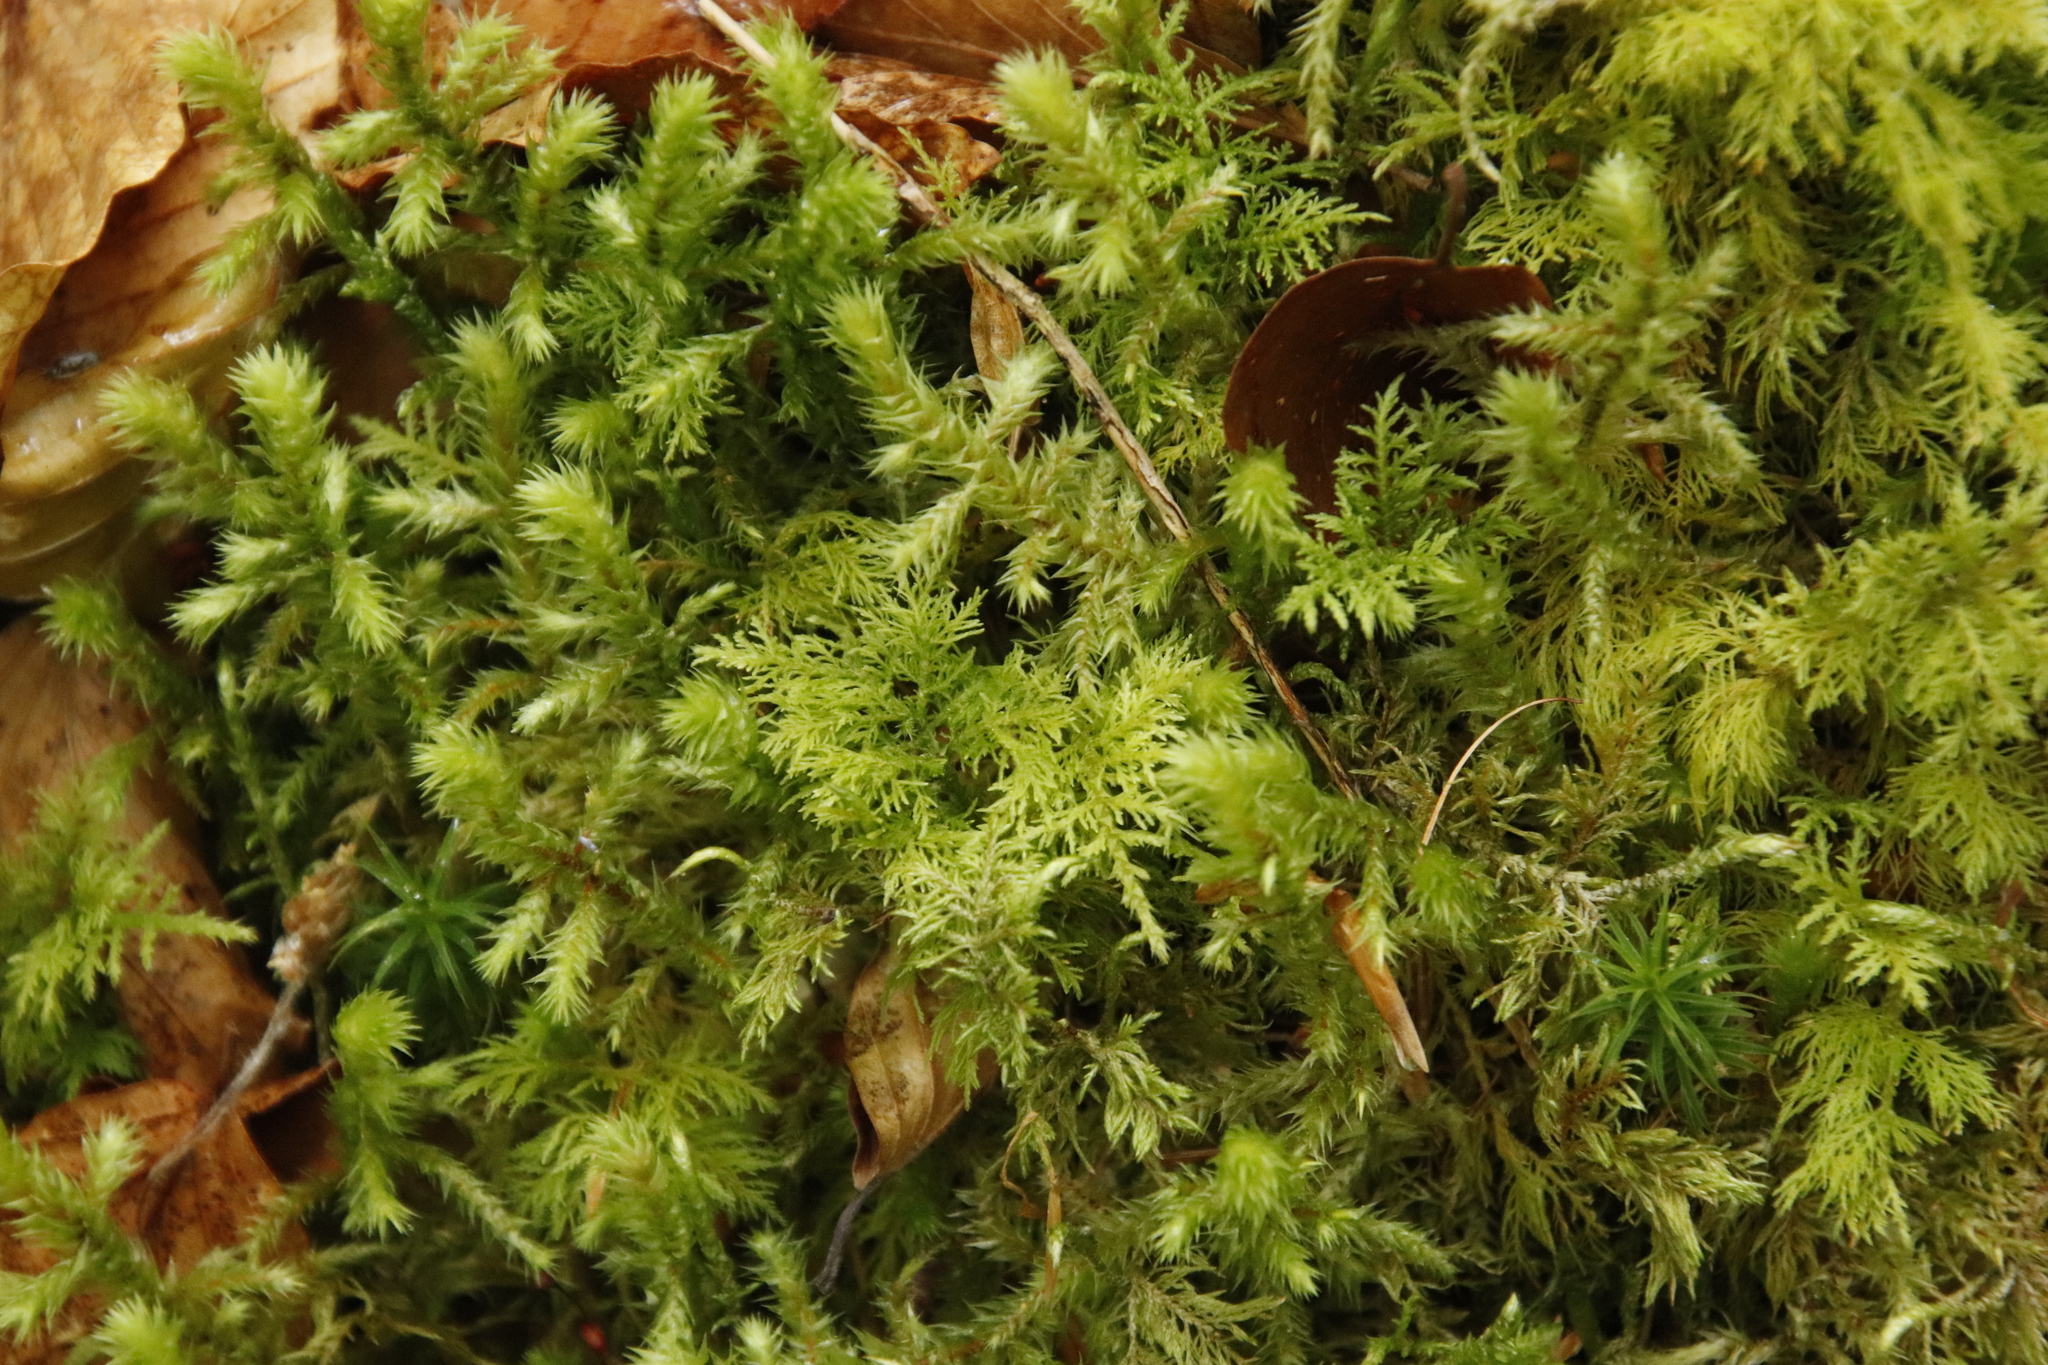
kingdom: Plantae
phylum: Bryophyta
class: Bryopsida
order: Hypnales
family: Thuidiaceae
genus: Thuidium
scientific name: Thuidium tamariscinum
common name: Common tamarisk-moss
